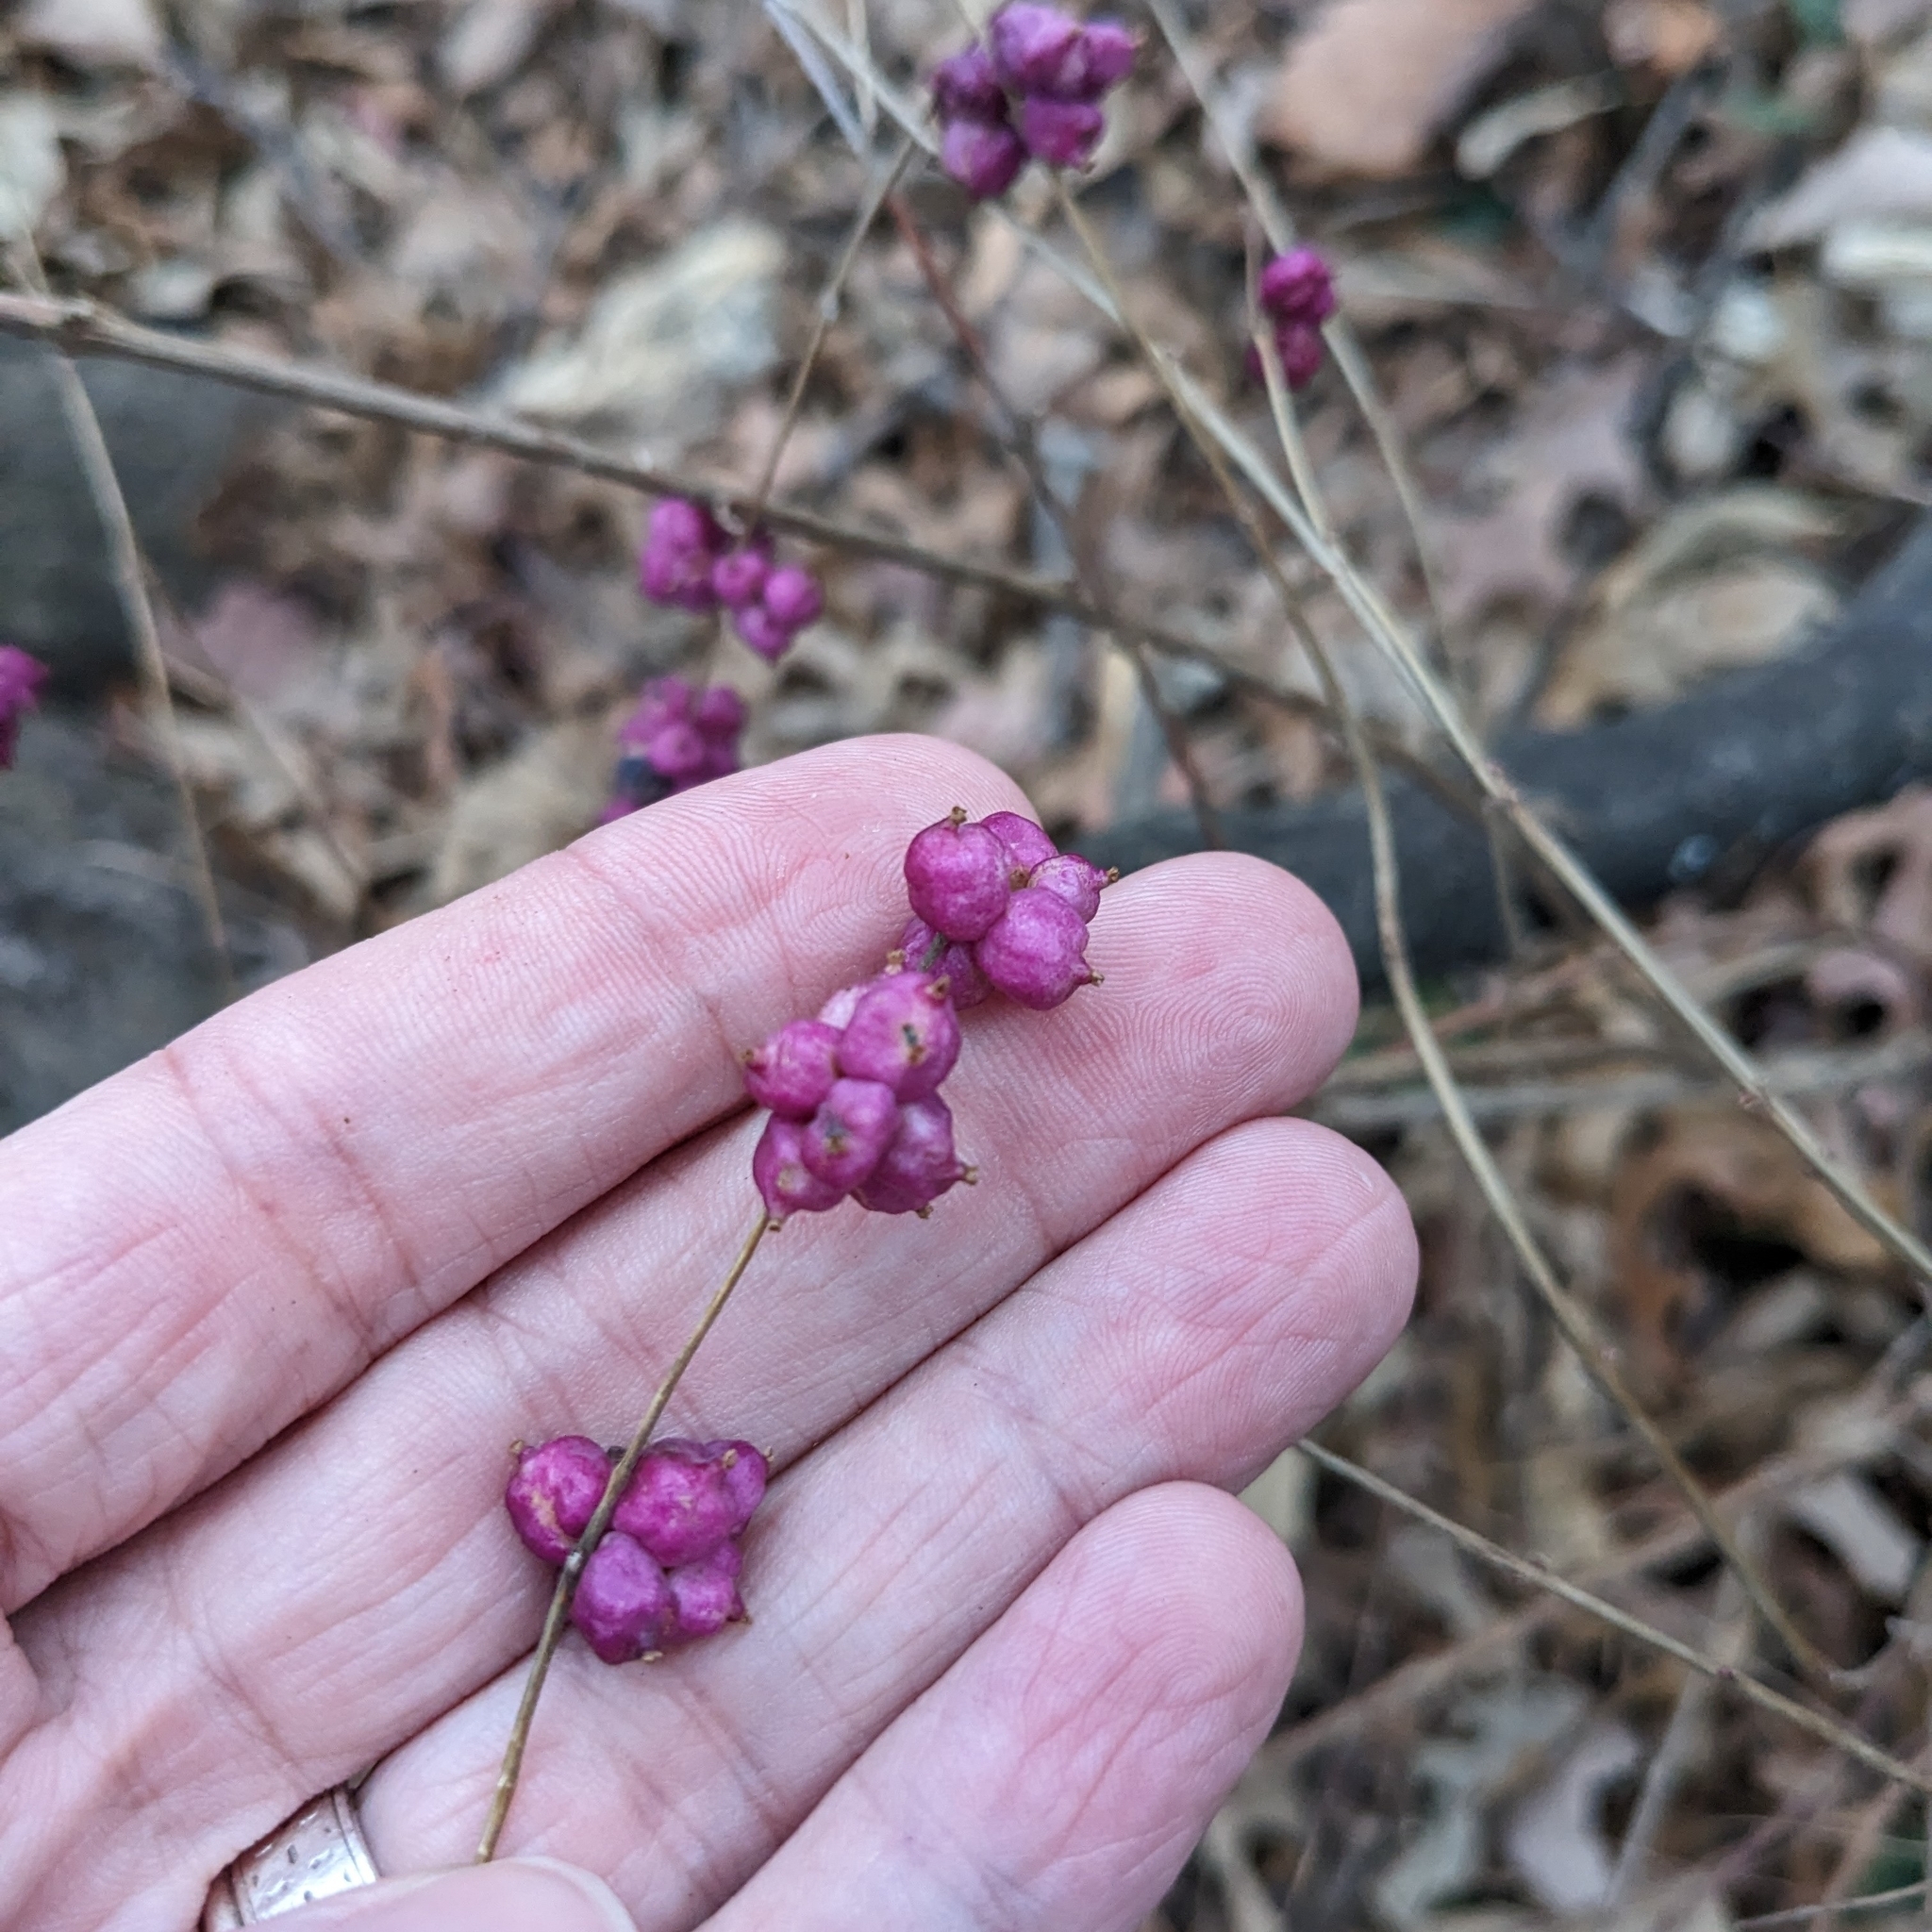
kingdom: Plantae
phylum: Tracheophyta
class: Magnoliopsida
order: Dipsacales
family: Caprifoliaceae
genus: Symphoricarpos
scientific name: Symphoricarpos orbiculatus
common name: Coralberry
